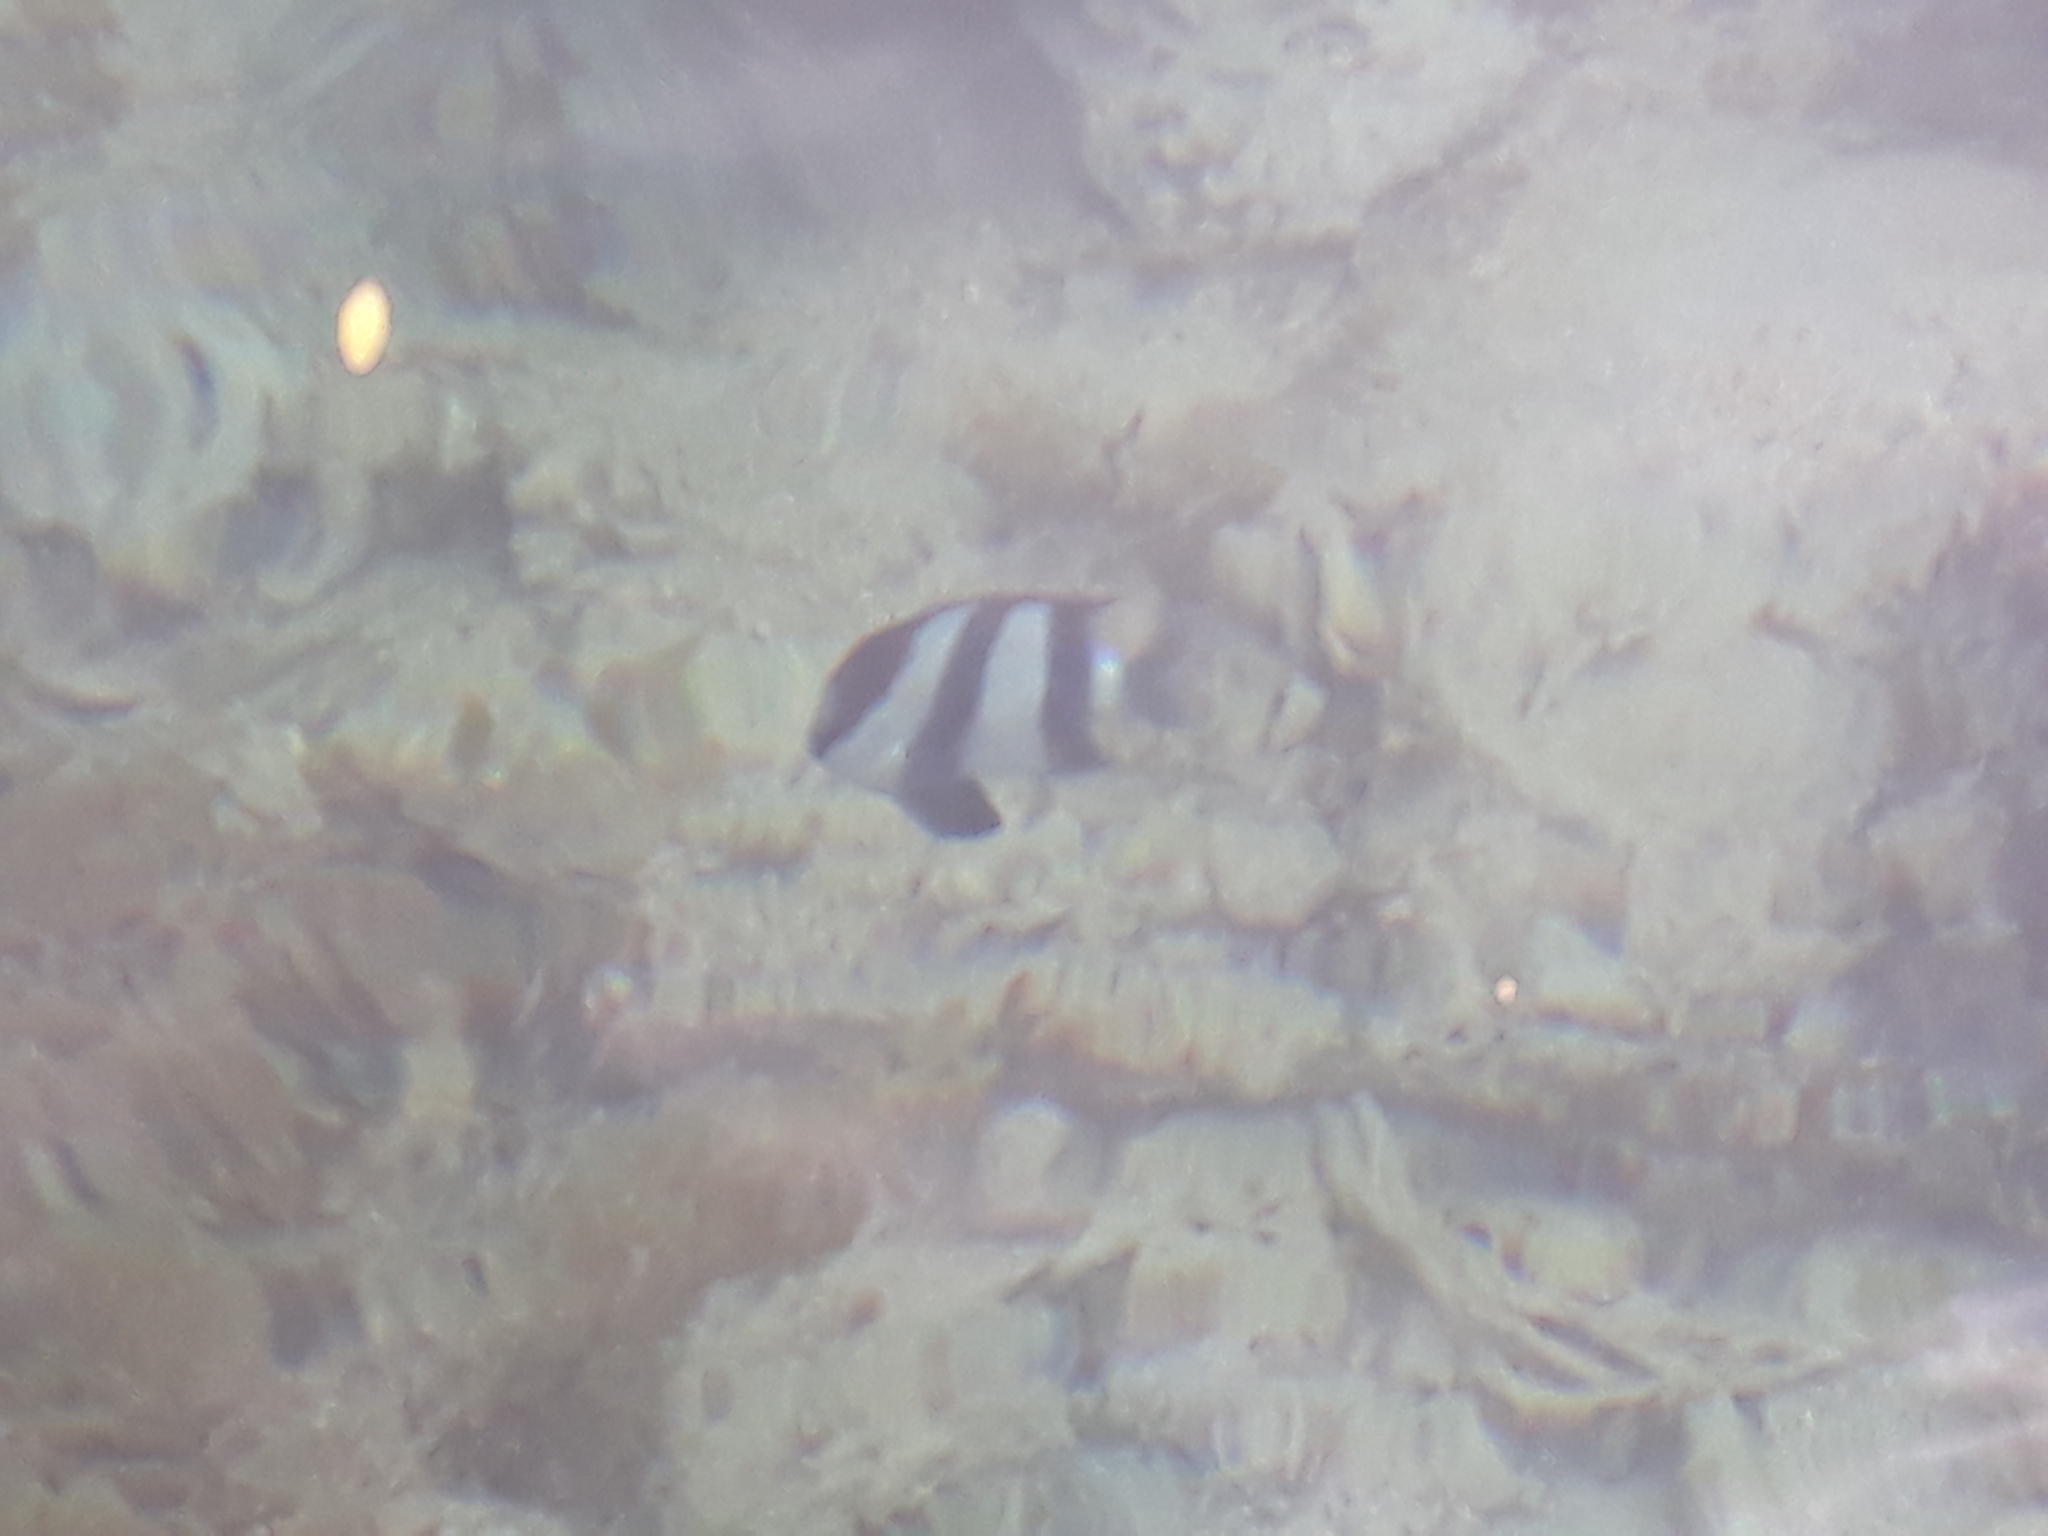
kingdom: Animalia
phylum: Chordata
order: Perciformes
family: Pomacentridae
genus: Dascyllus
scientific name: Dascyllus abudafur
